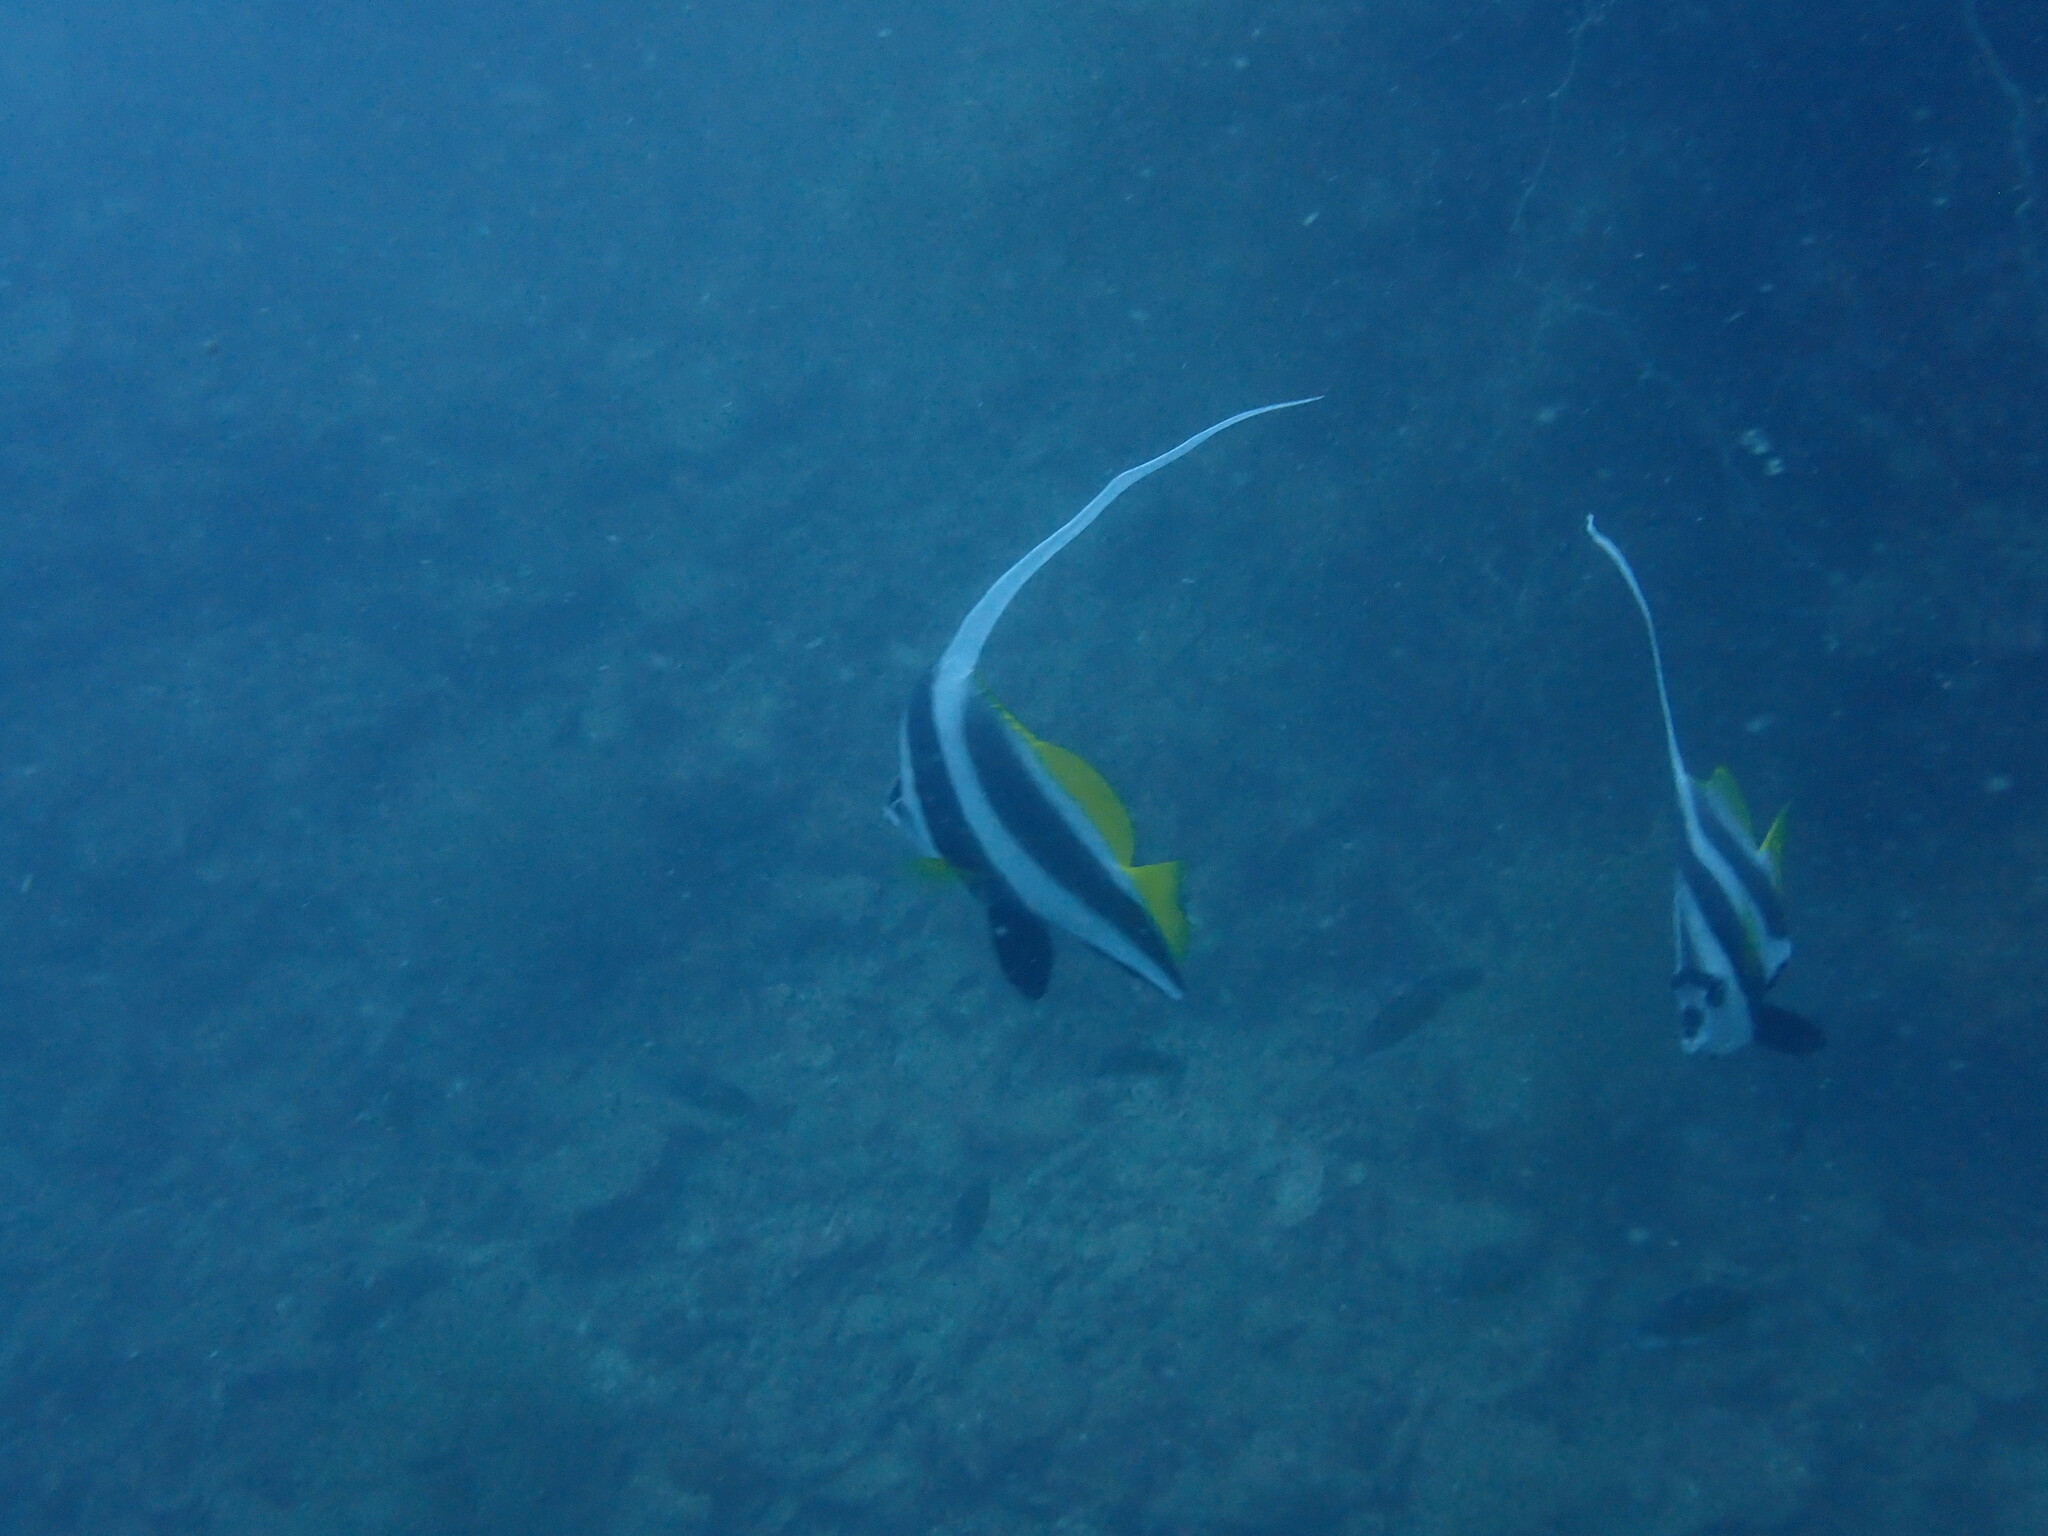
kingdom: Animalia
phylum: Chordata
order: Perciformes
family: Chaetodontidae
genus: Heniochus
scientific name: Heniochus acuminatus
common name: Pennant coralfish
